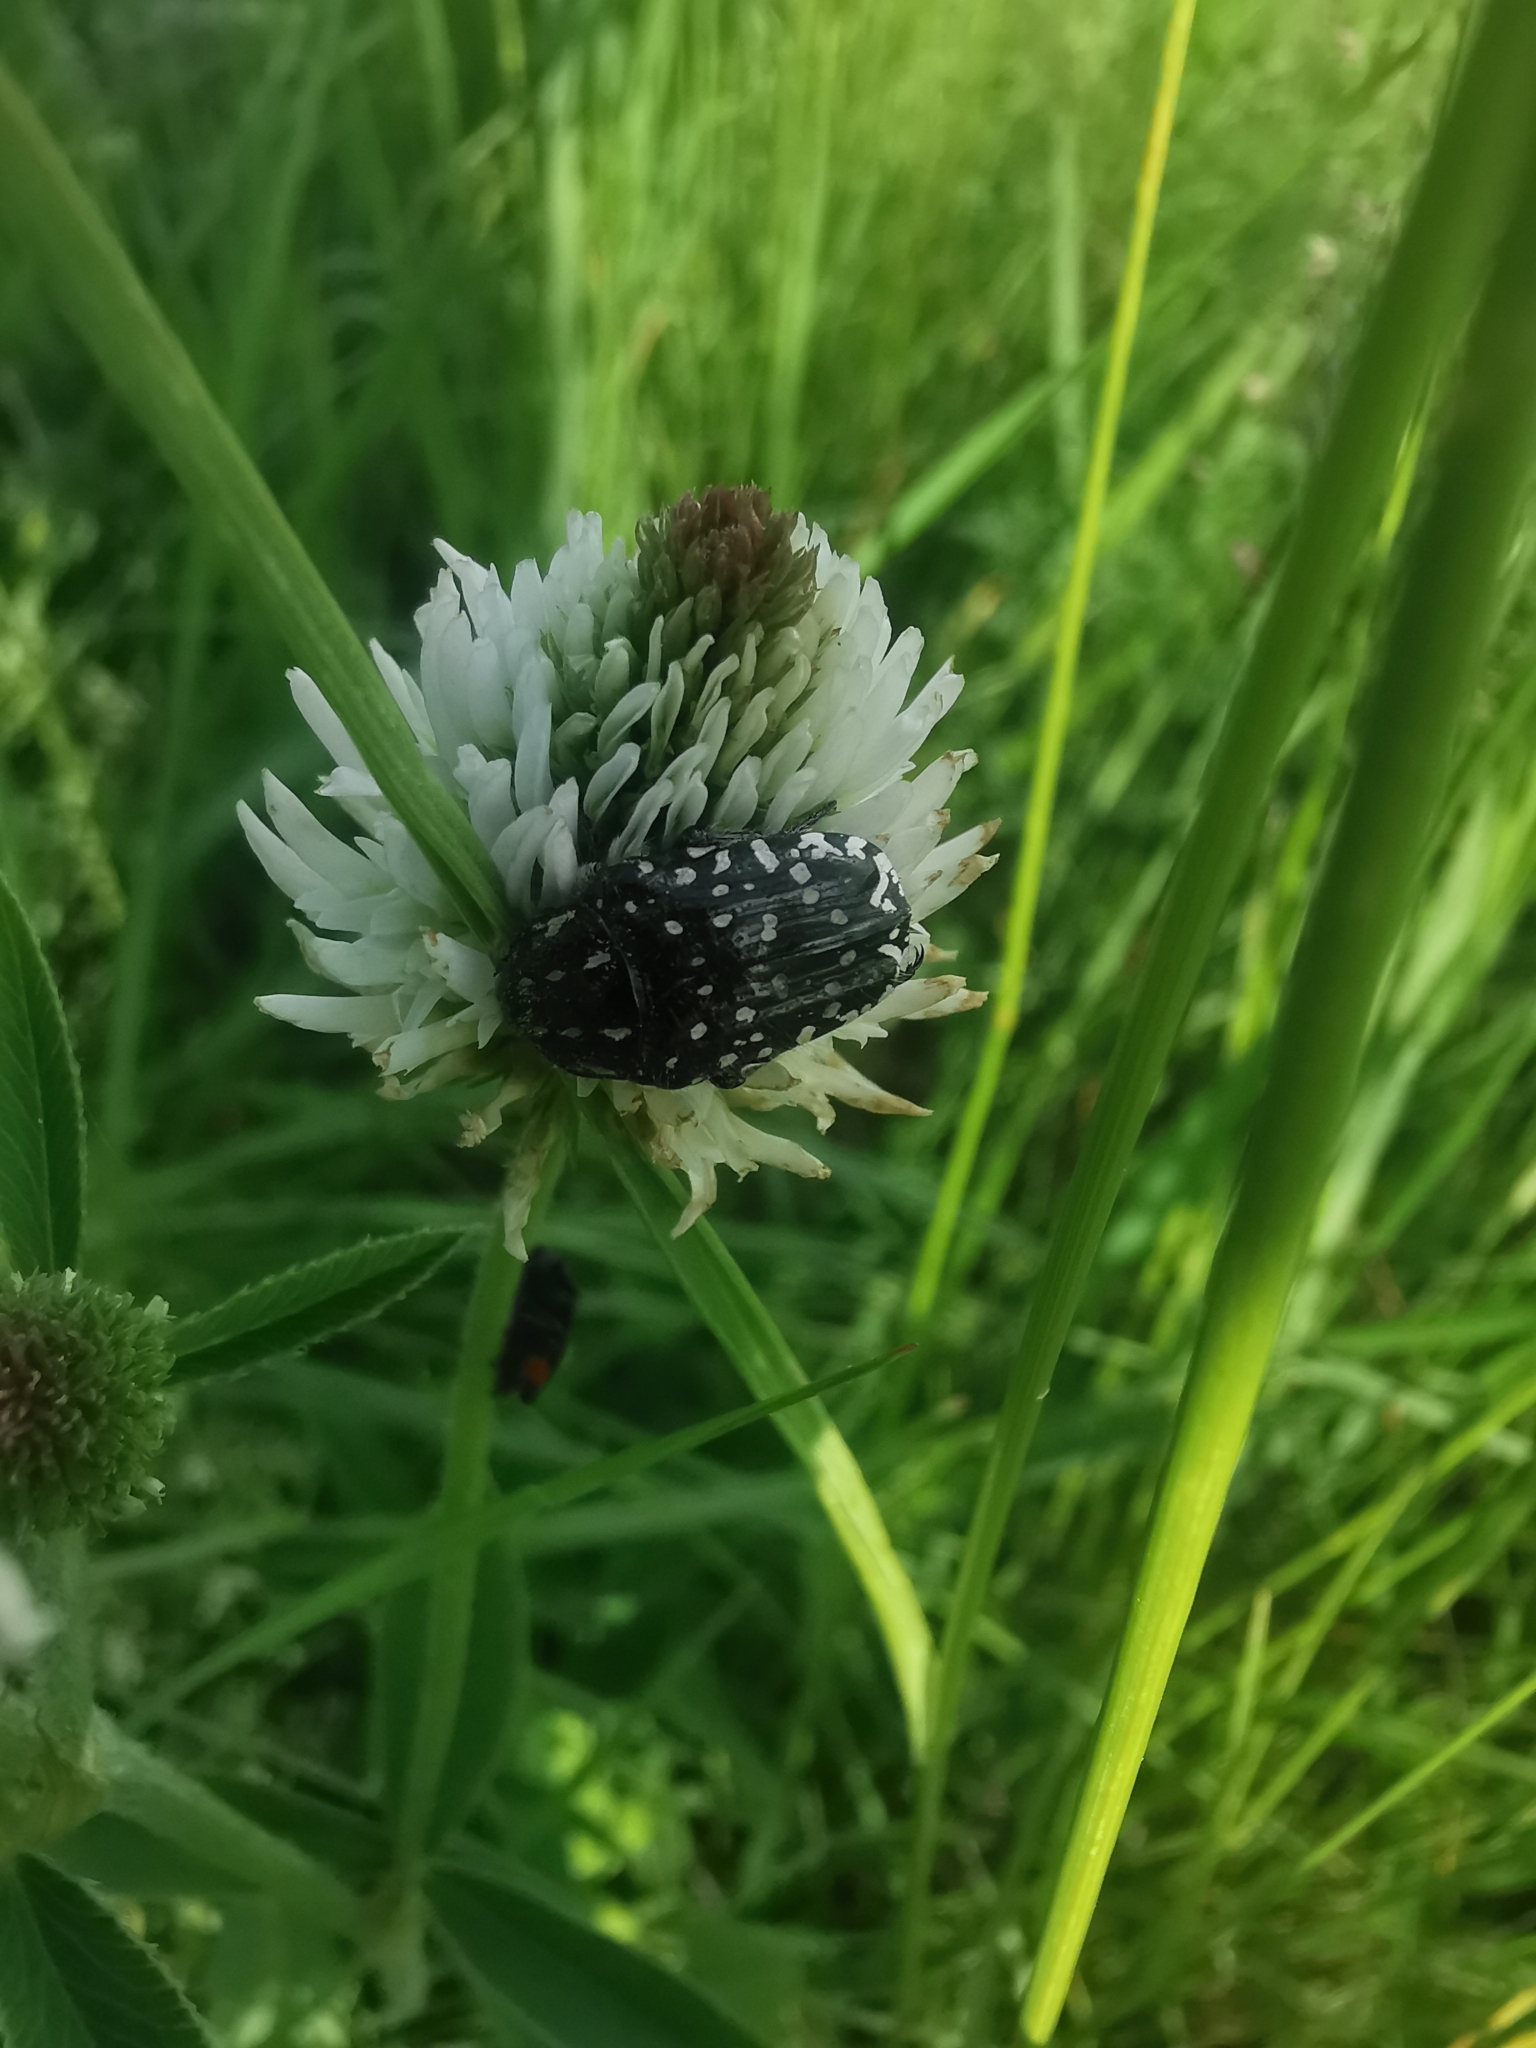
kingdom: Animalia
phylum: Arthropoda
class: Insecta
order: Coleoptera
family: Scarabaeidae
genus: Oxythyrea
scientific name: Oxythyrea funesta
